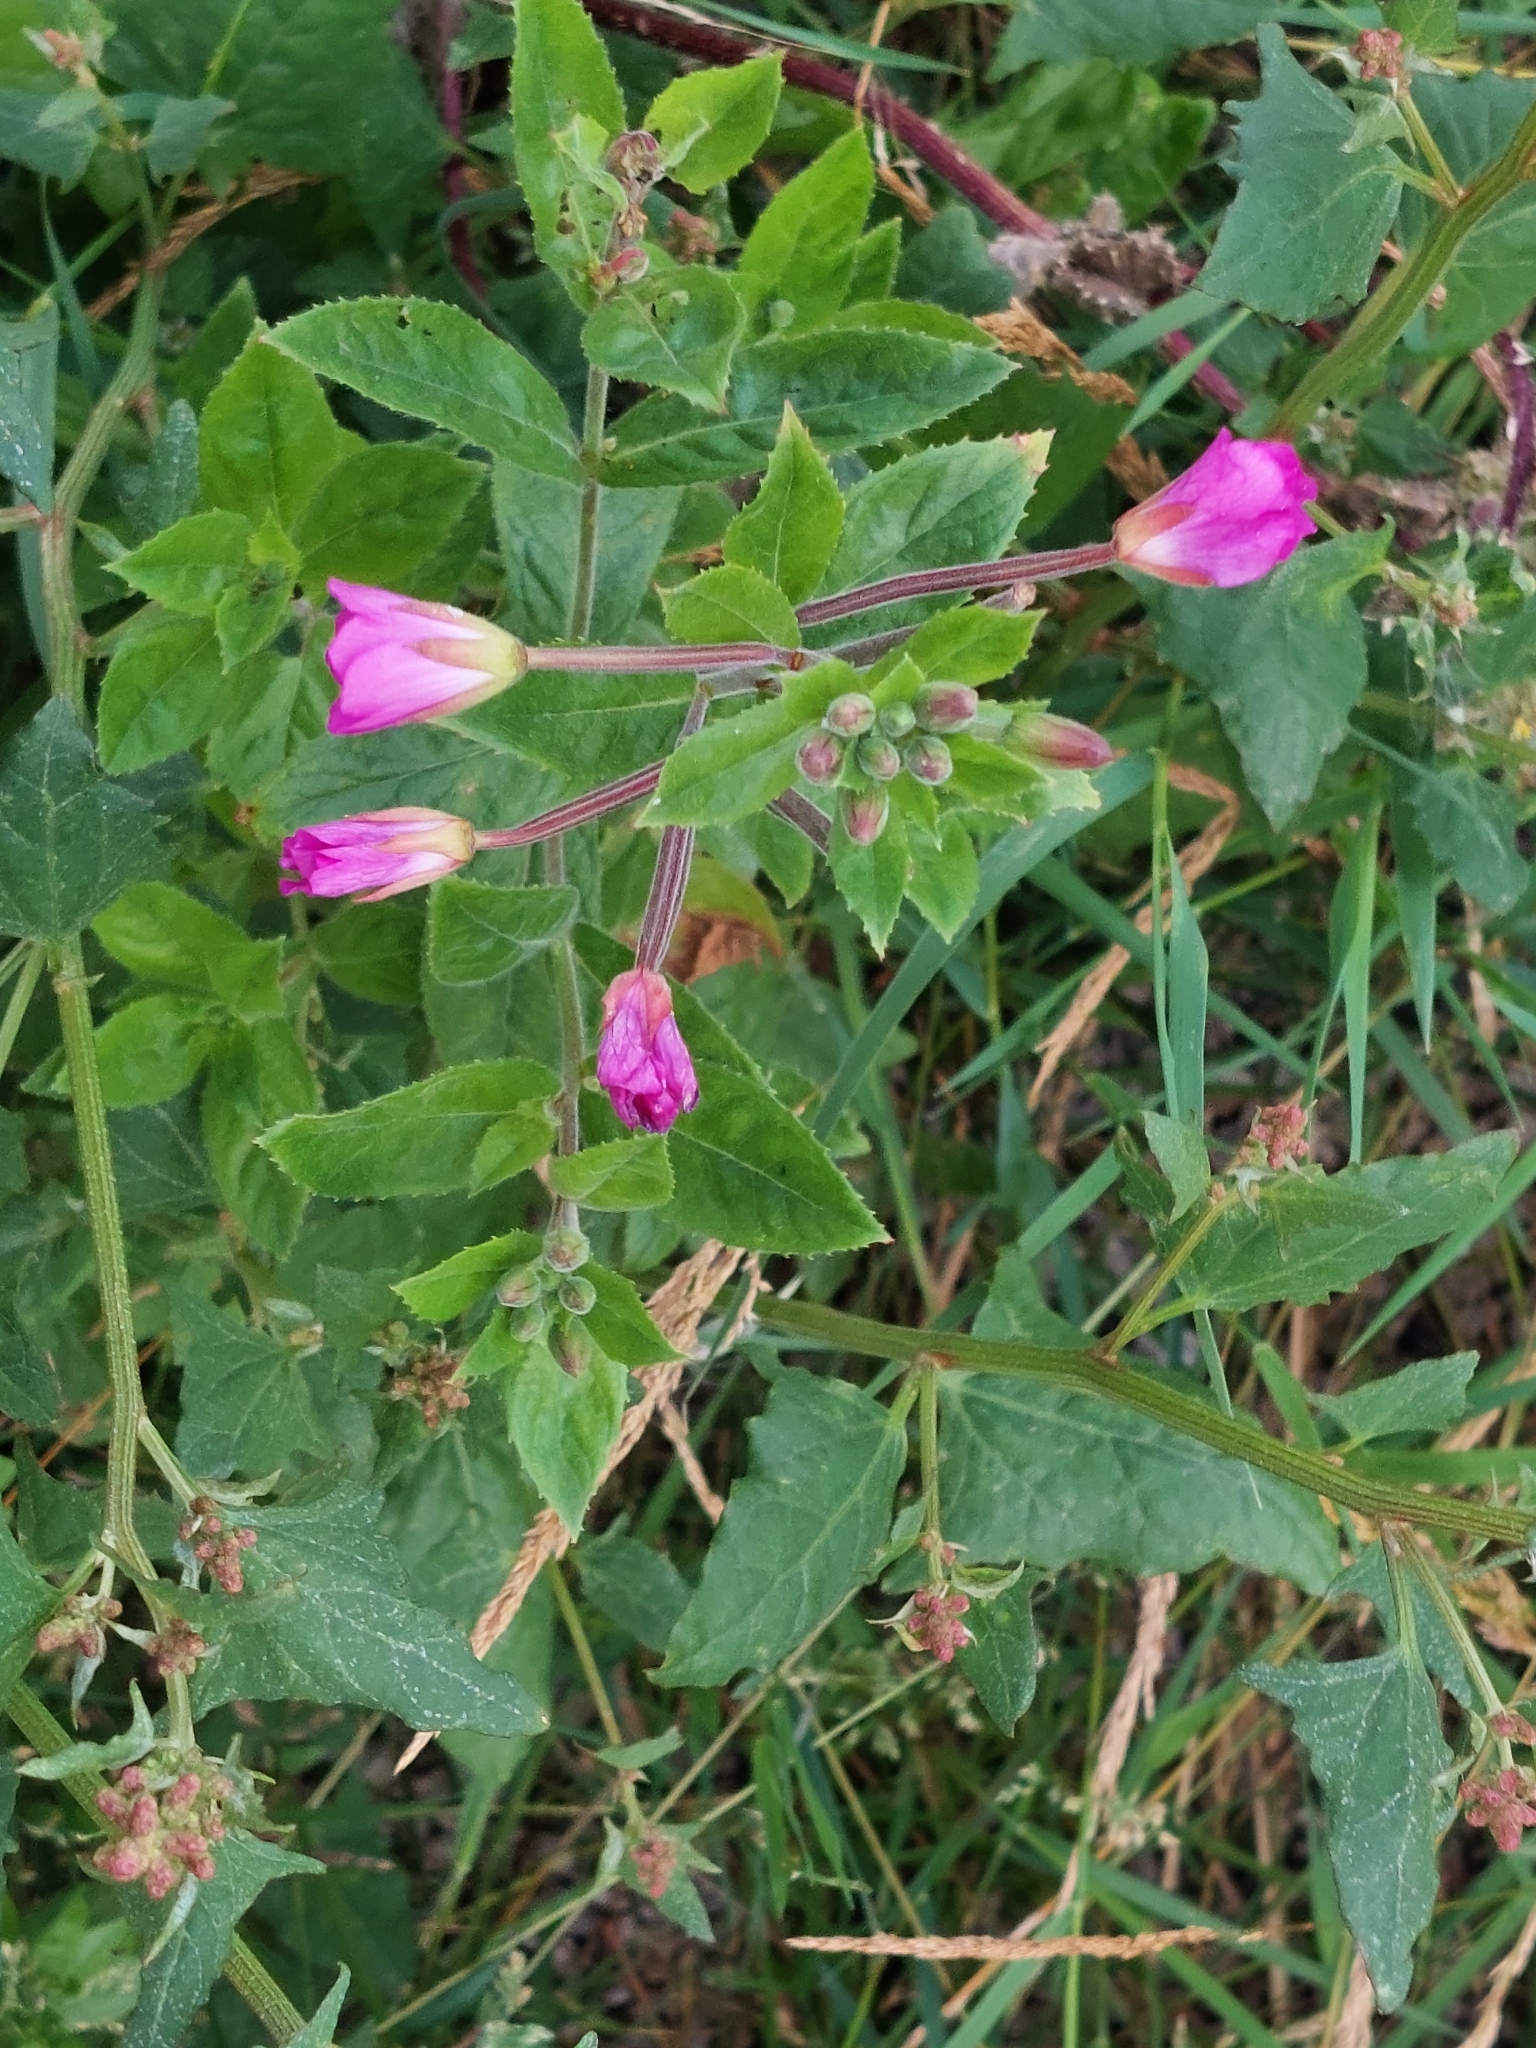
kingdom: Plantae
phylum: Tracheophyta
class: Magnoliopsida
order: Myrtales
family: Onagraceae
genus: Epilobium
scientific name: Epilobium hirsutum
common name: Great willowherb
